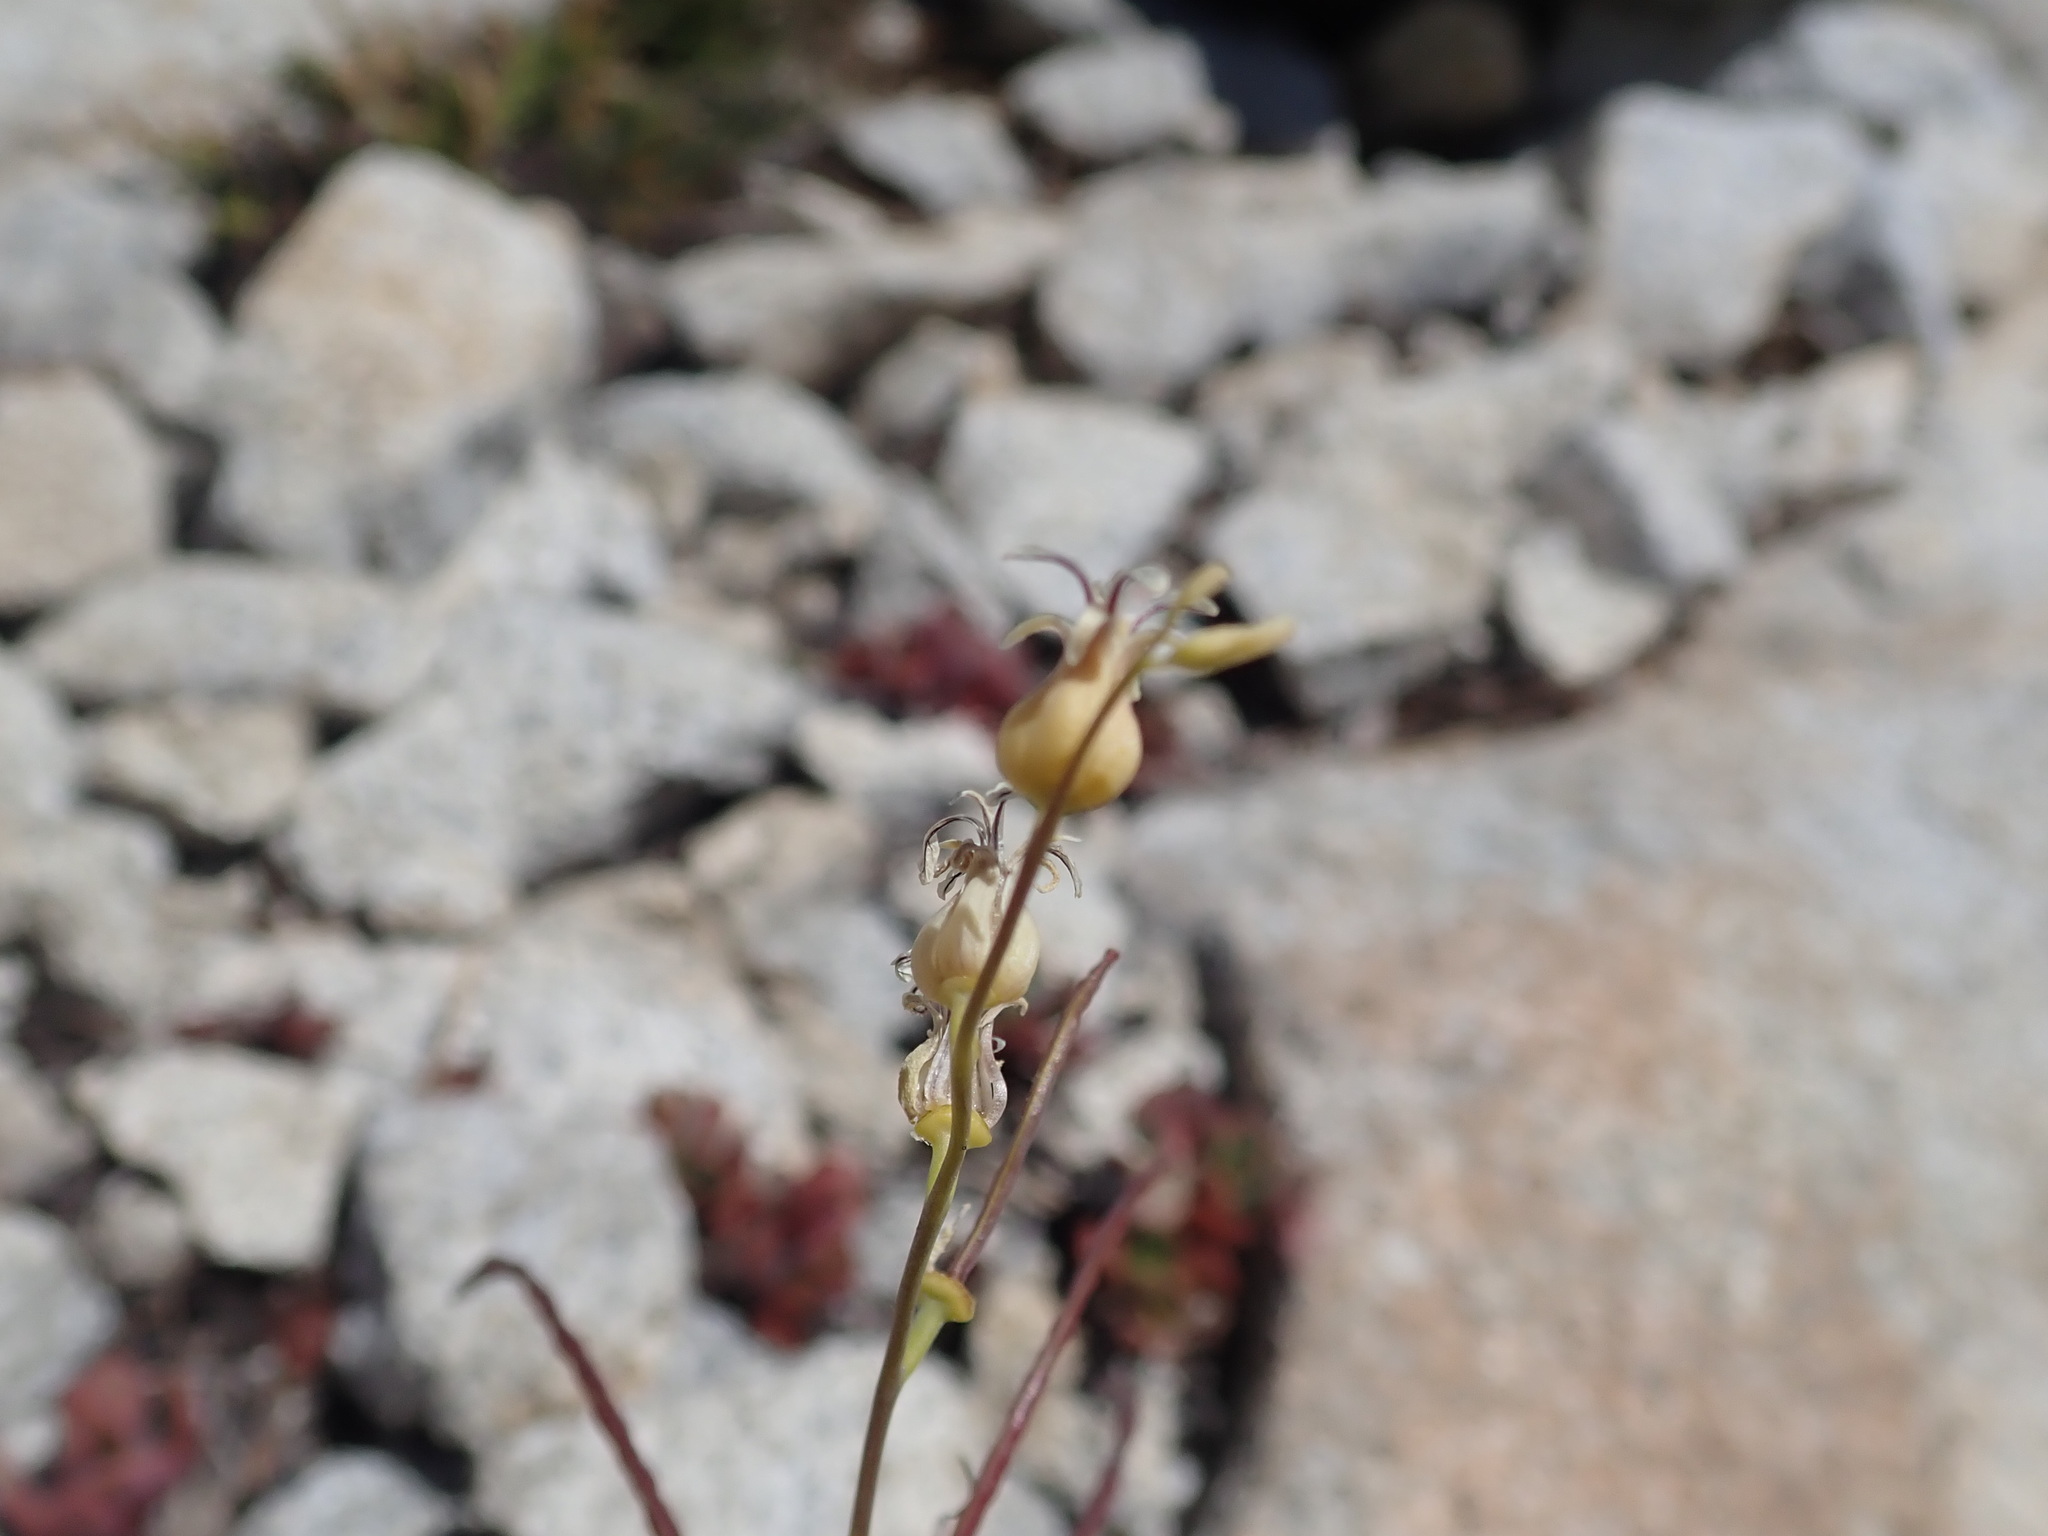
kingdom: Plantae
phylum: Tracheophyta
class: Magnoliopsida
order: Brassicales
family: Brassicaceae
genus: Streptanthus
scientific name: Streptanthus tortuosus
